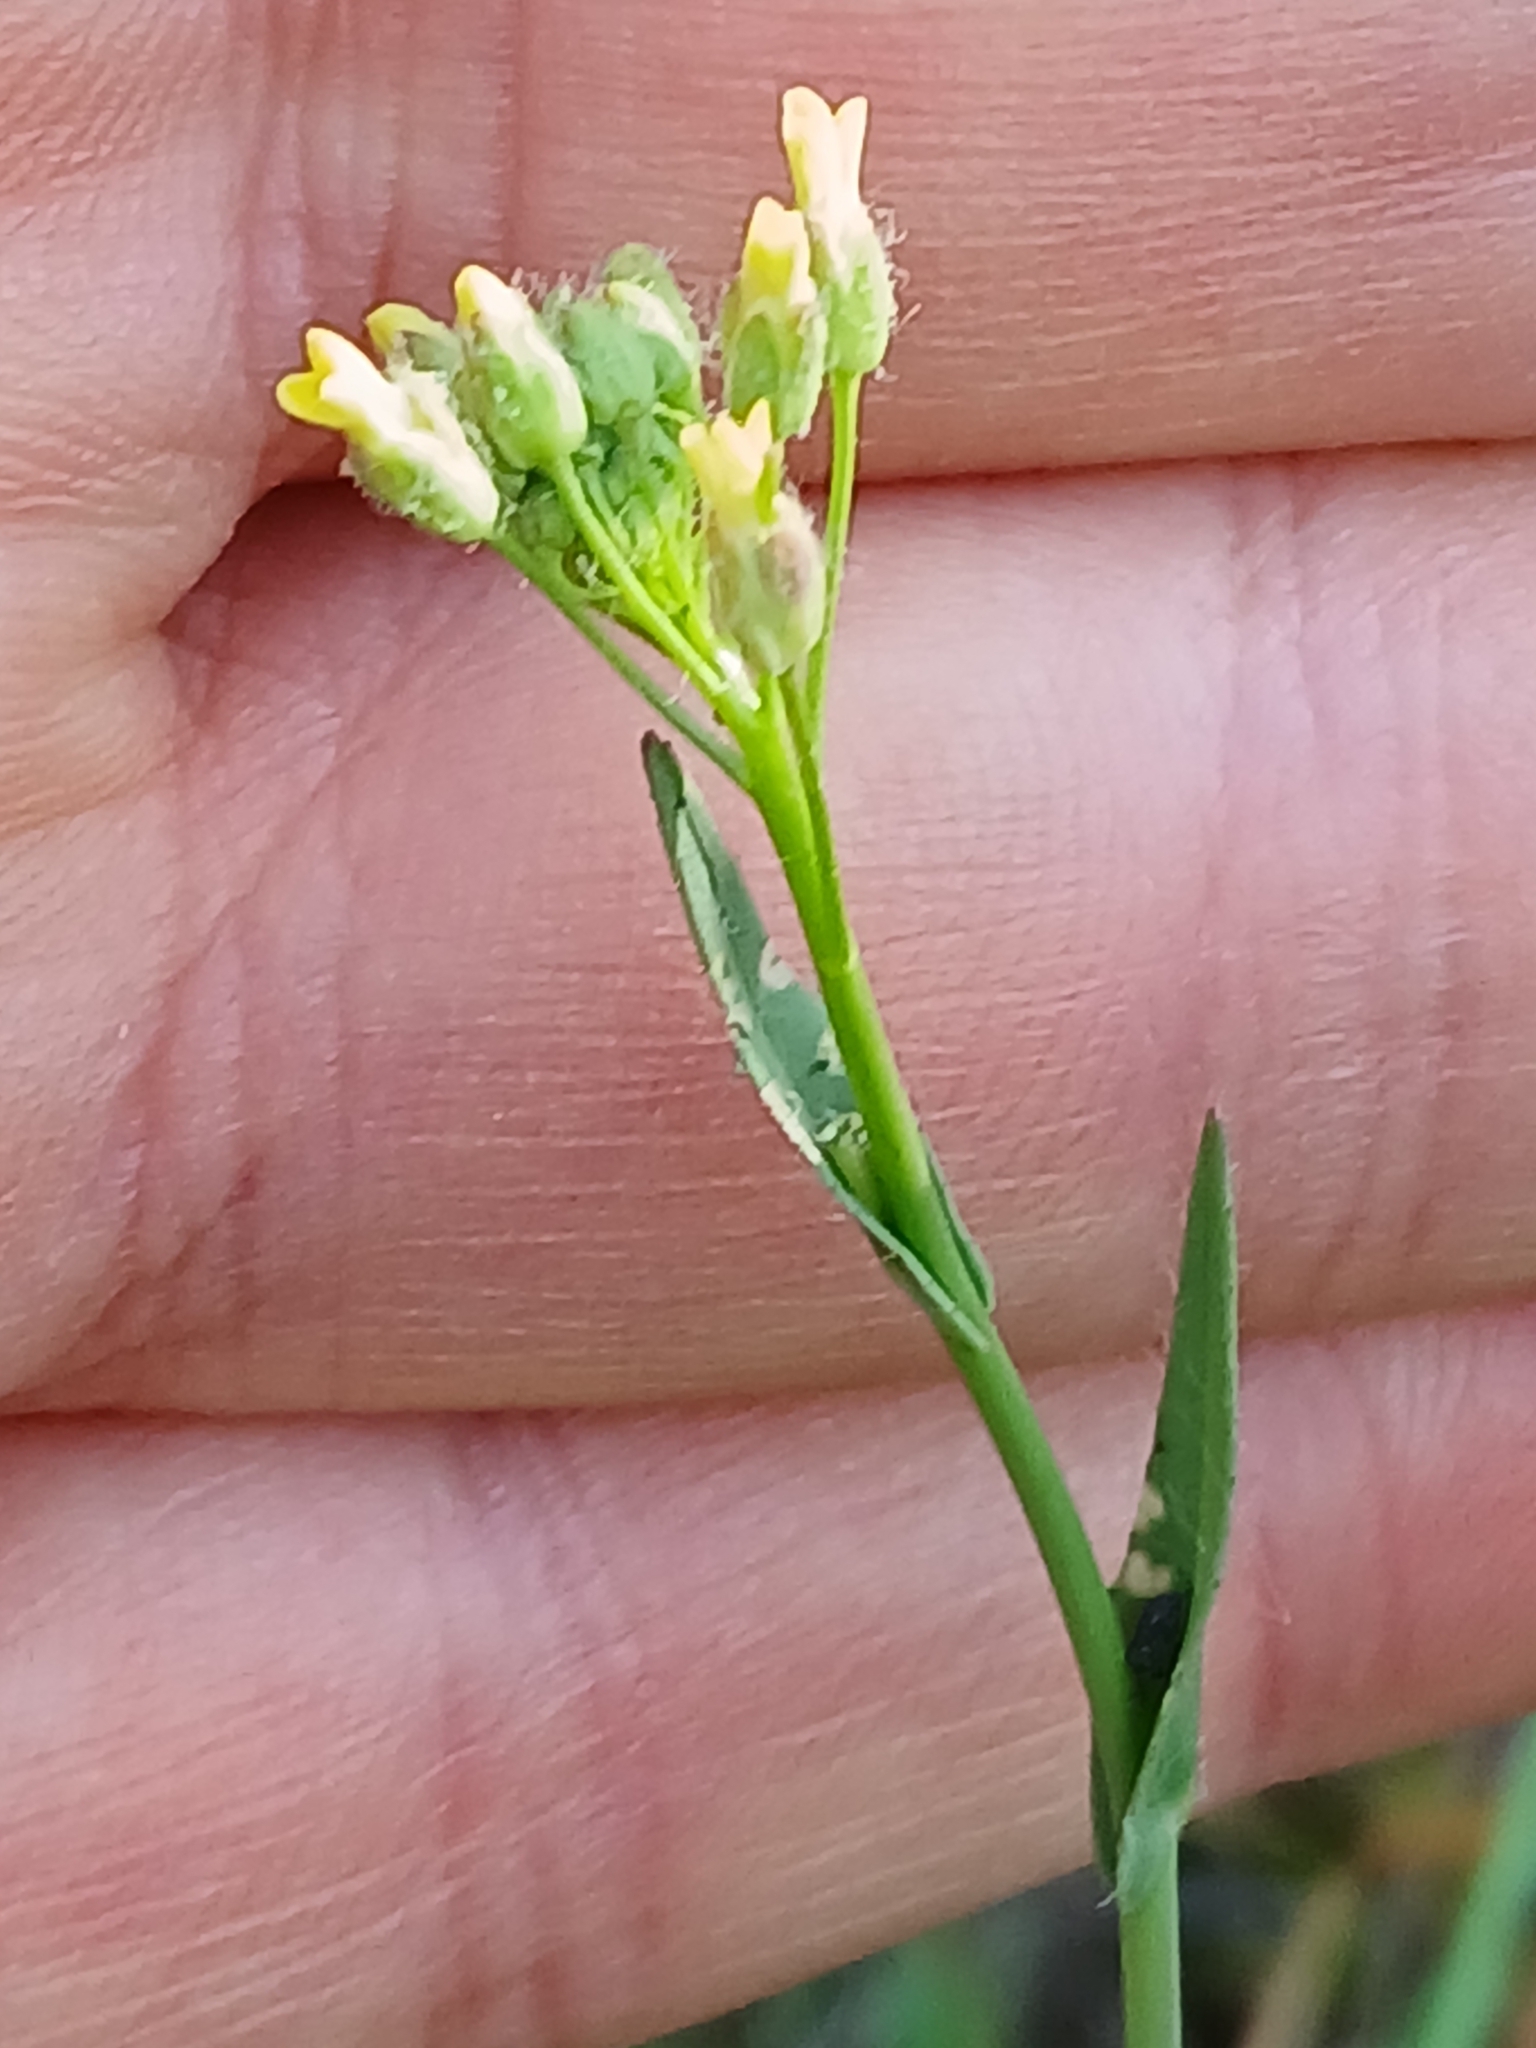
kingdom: Plantae
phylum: Tracheophyta
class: Magnoliopsida
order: Brassicales
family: Brassicaceae
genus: Camelina
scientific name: Camelina microcarpa
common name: Lesser gold-of-pleasure
